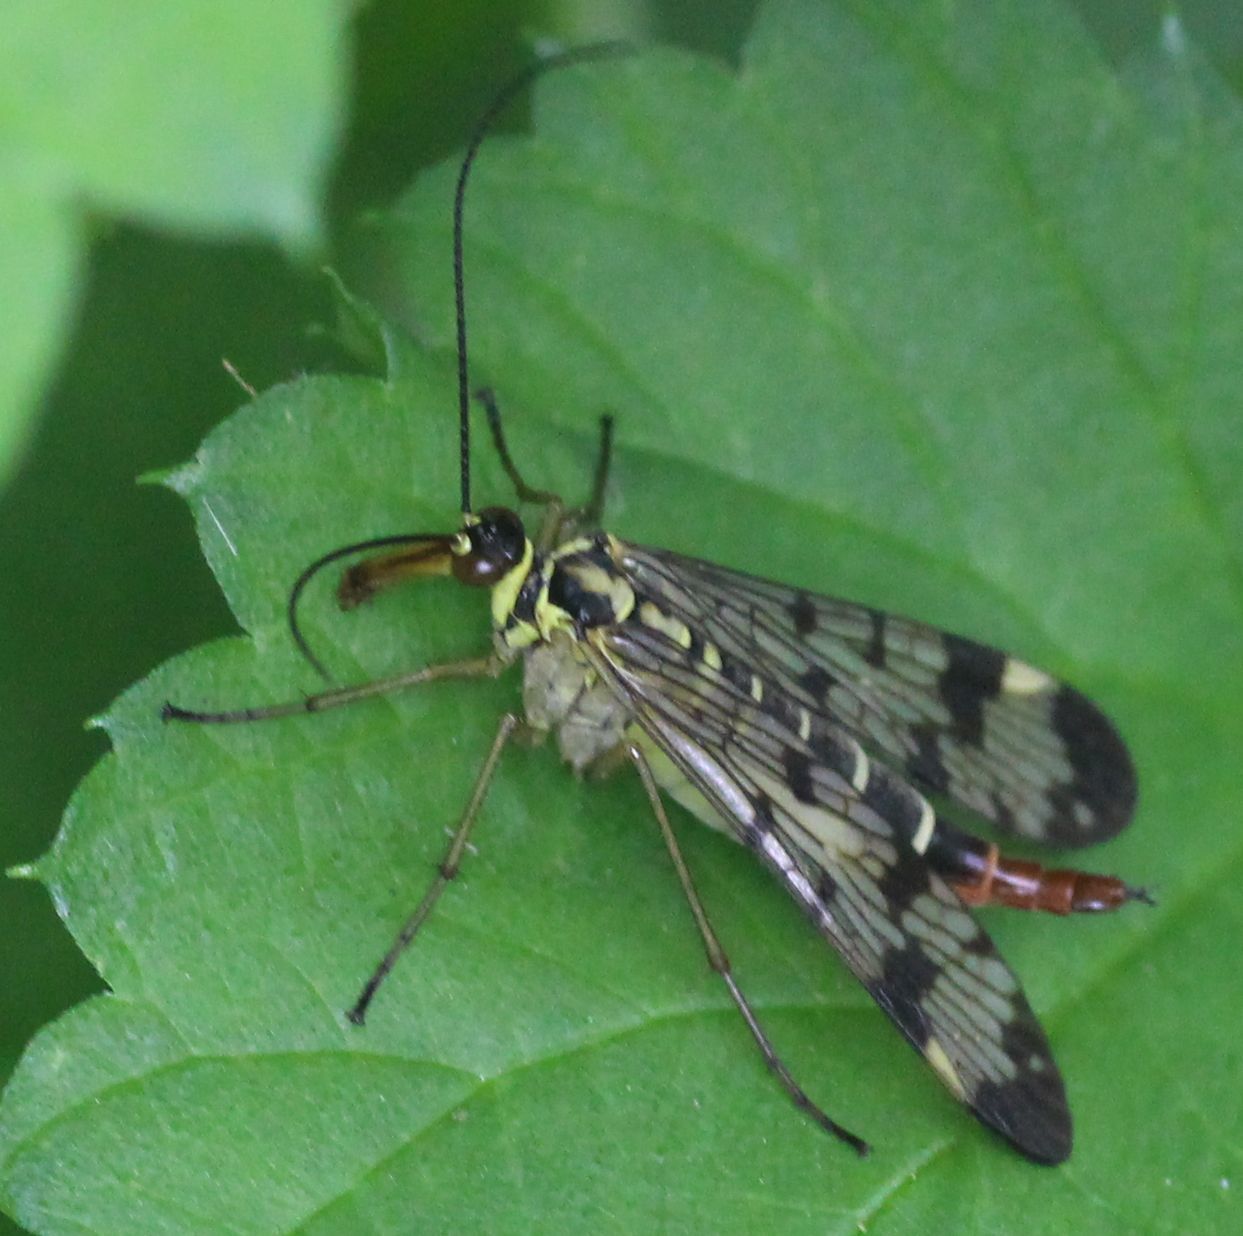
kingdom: Animalia
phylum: Arthropoda
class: Insecta
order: Mecoptera
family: Panorpidae
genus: Panorpa
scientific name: Panorpa communis
